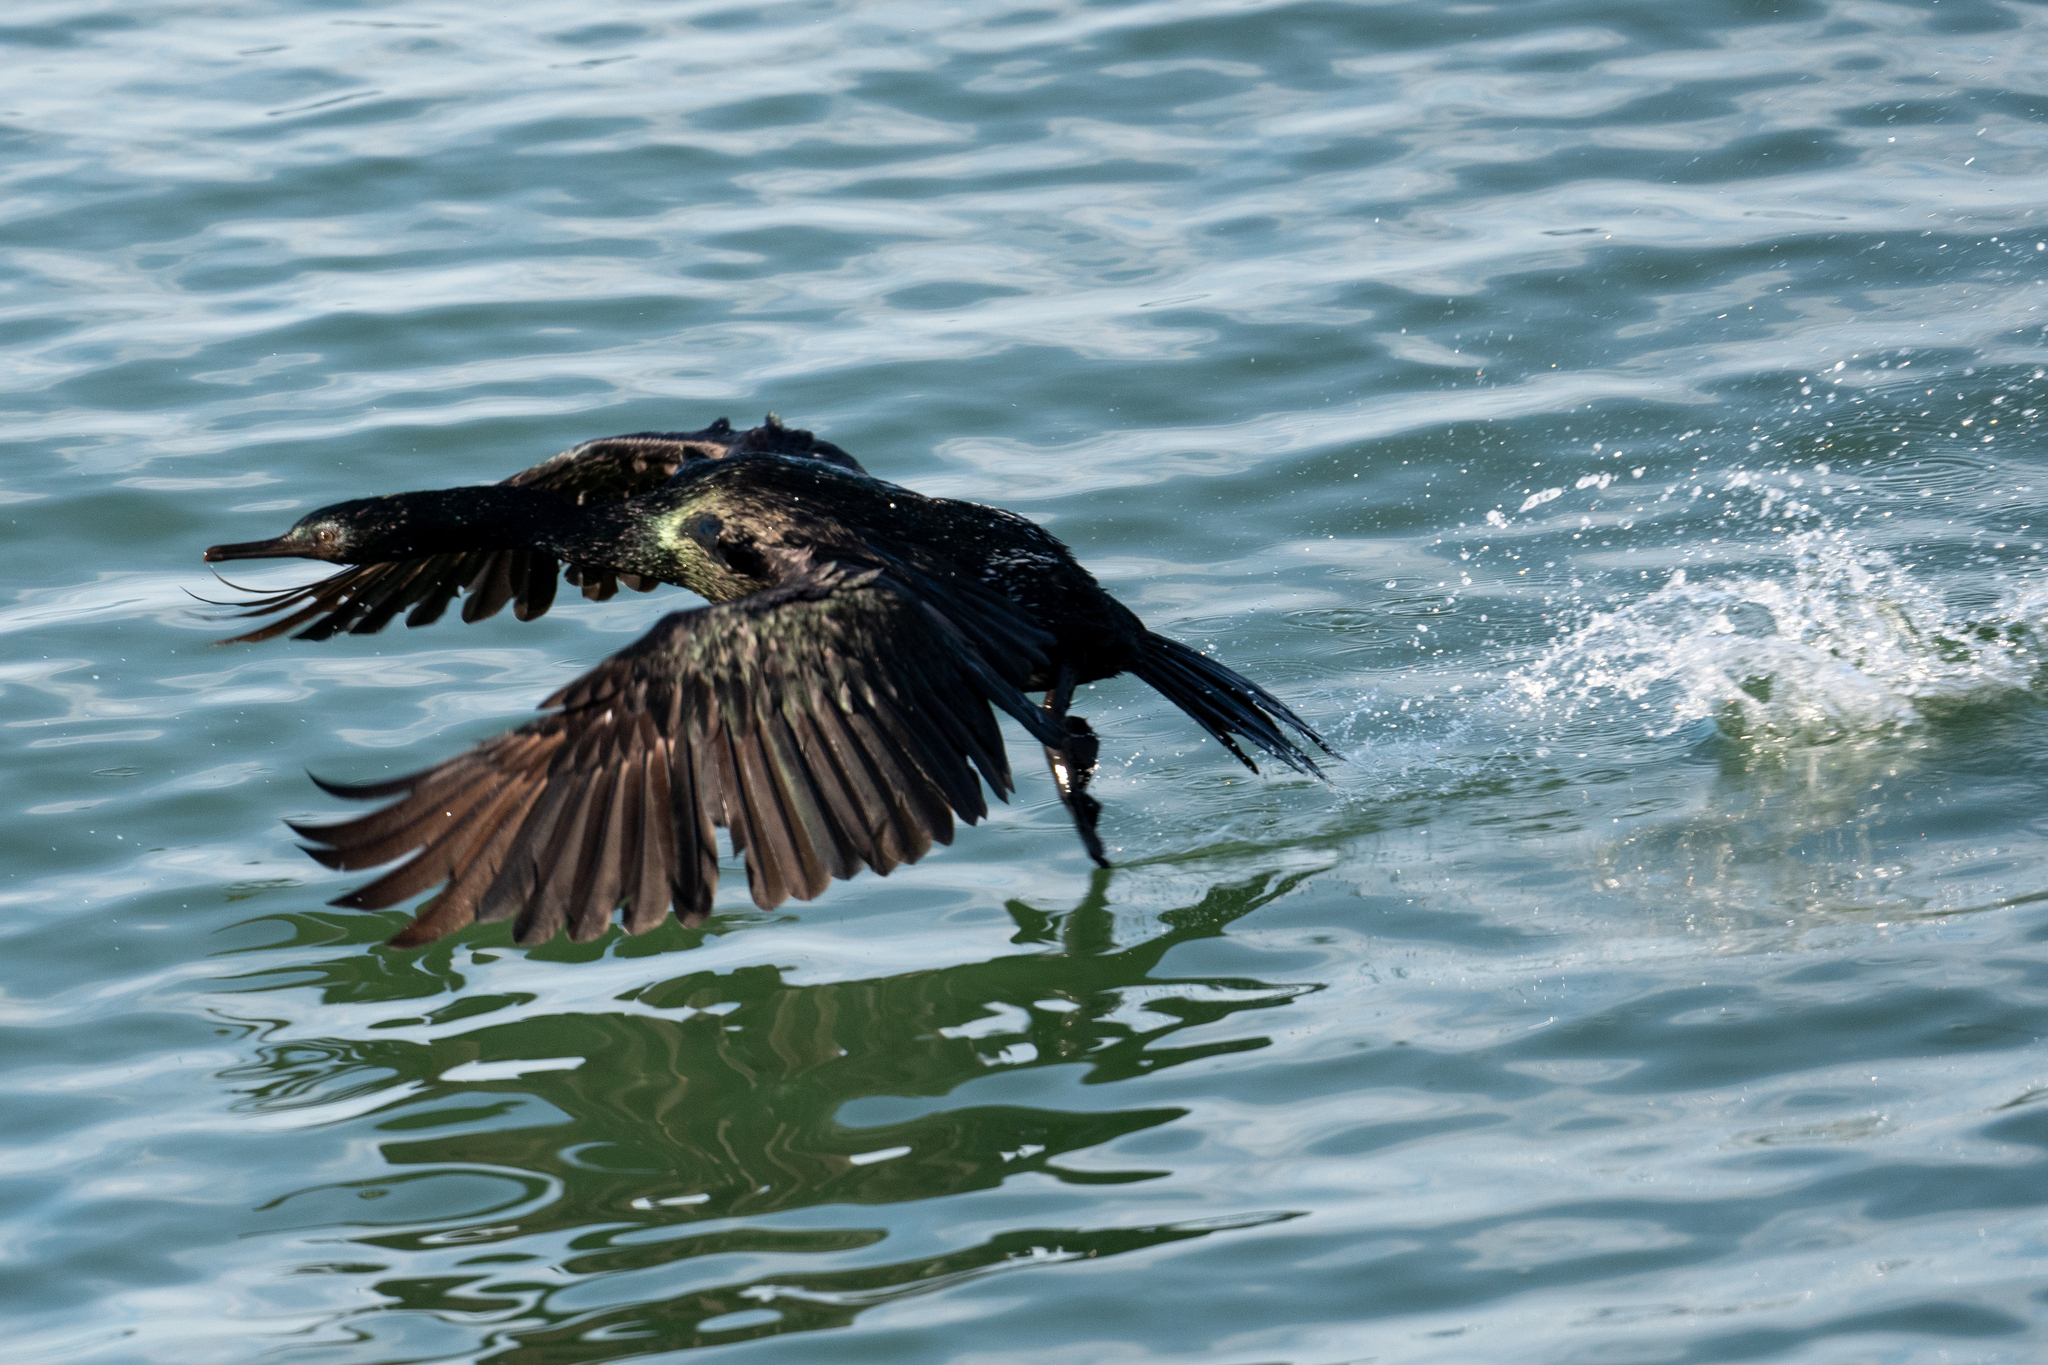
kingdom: Animalia
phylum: Chordata
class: Aves
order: Suliformes
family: Phalacrocoracidae
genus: Phalacrocorax
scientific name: Phalacrocorax pelagicus
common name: Pelagic cormorant
